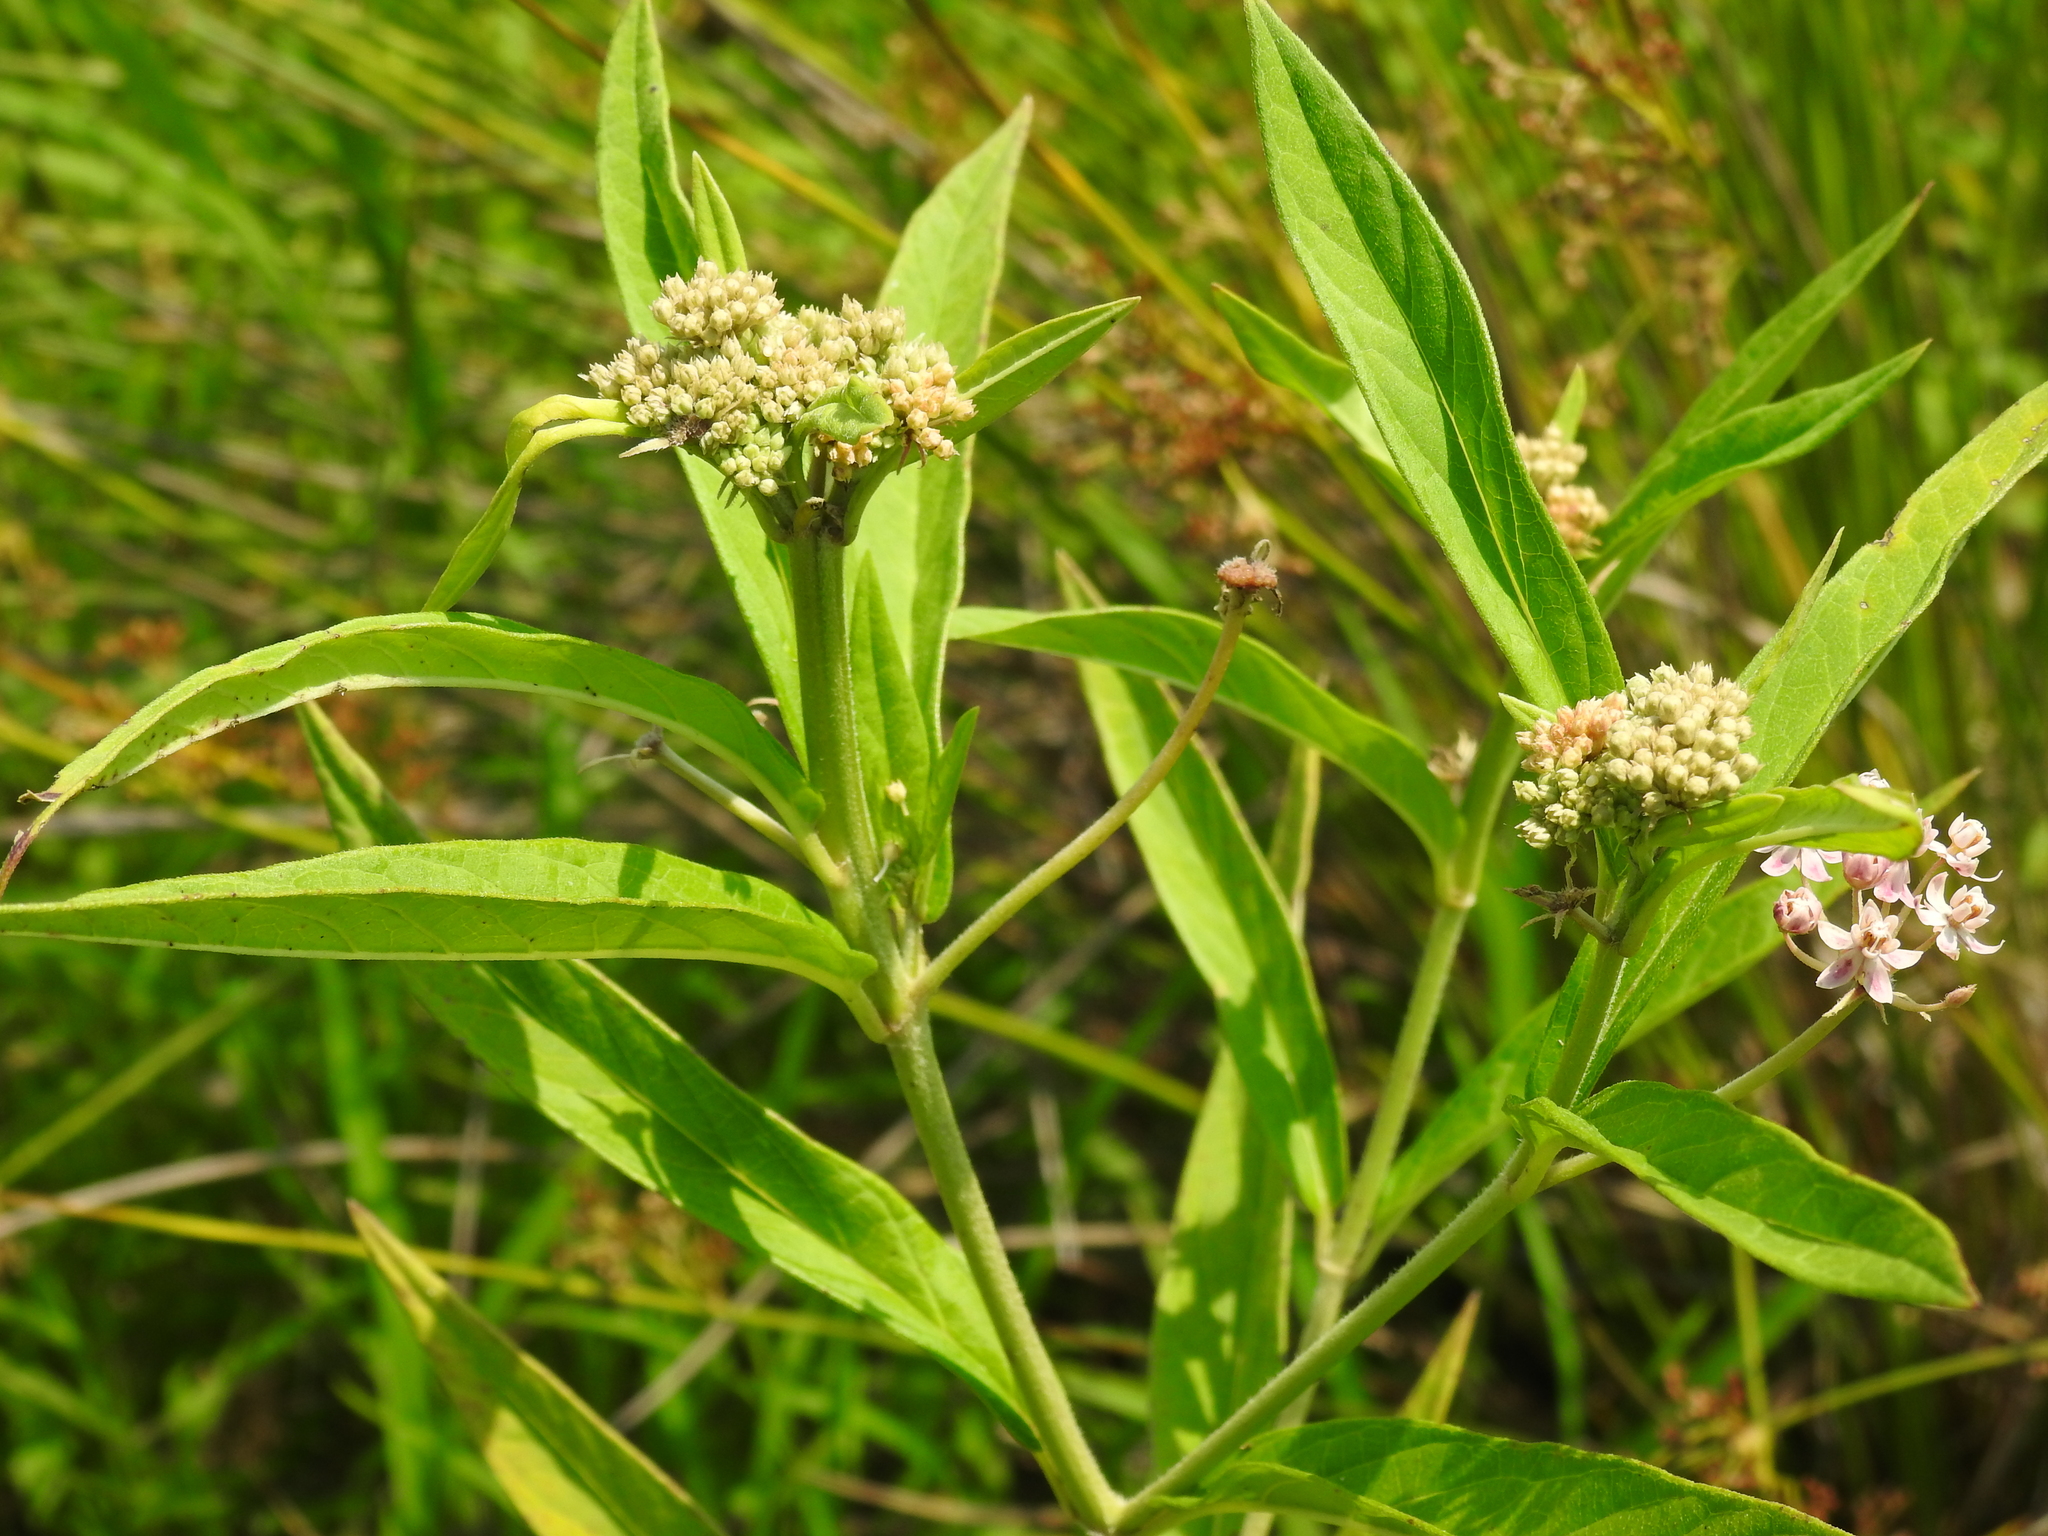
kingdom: Plantae
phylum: Tracheophyta
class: Magnoliopsida
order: Gentianales
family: Apocynaceae
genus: Asclepias
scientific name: Asclepias incarnata
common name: Swamp milkweed
